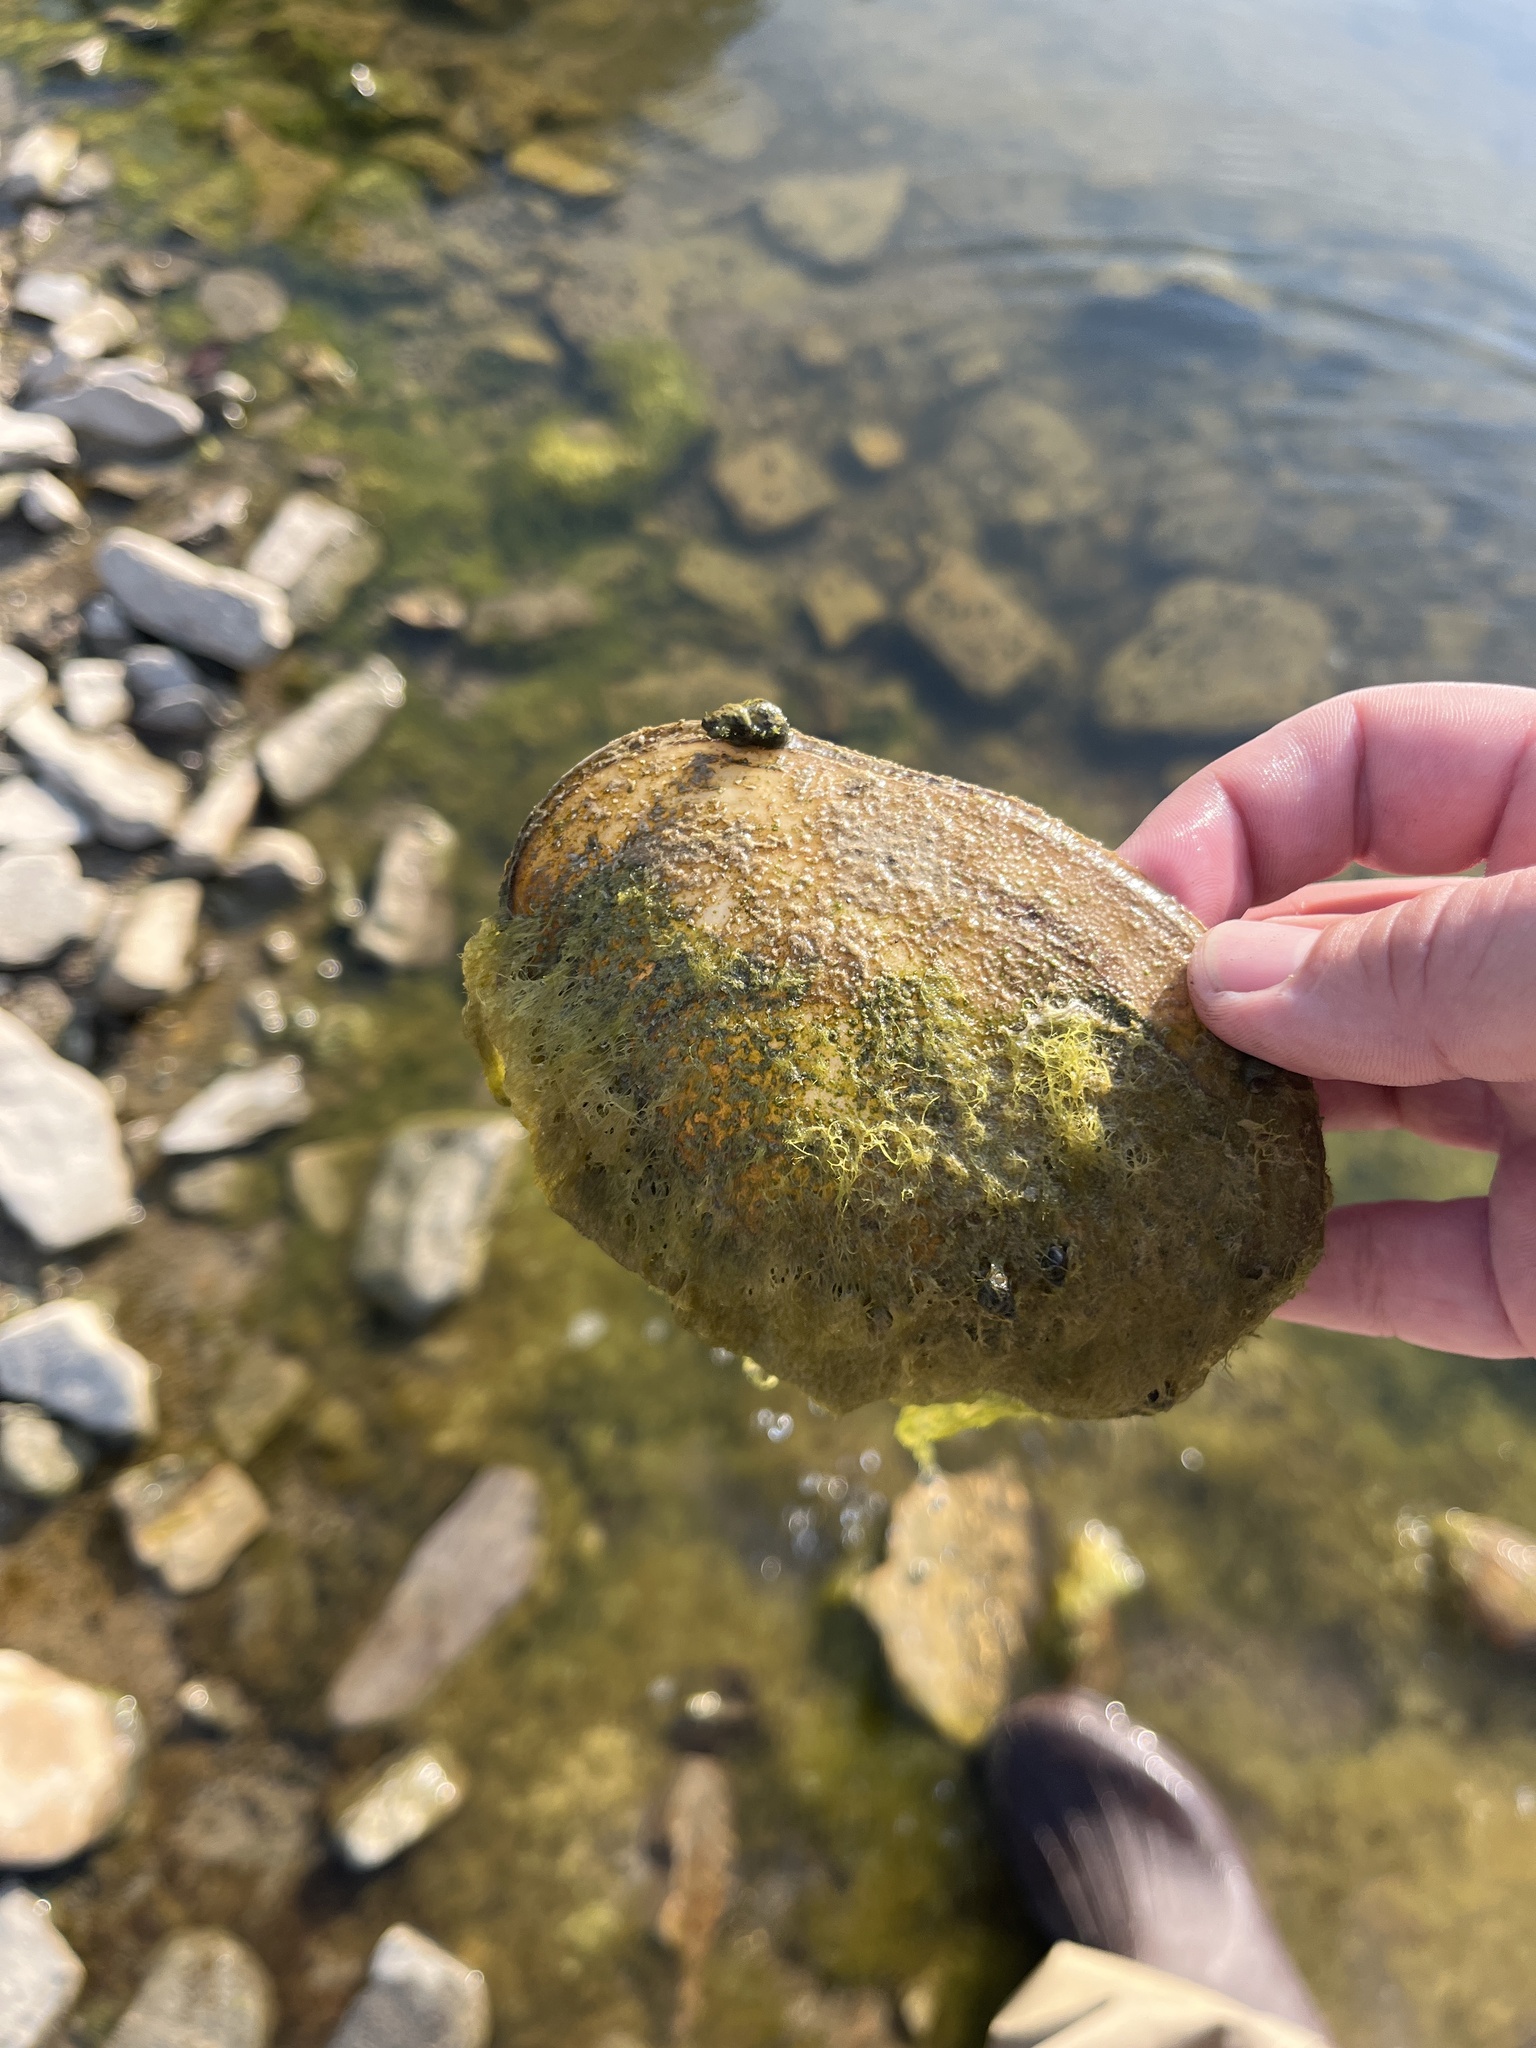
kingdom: Animalia
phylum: Mollusca
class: Bivalvia
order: Unionida
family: Unionidae
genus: Potamilus
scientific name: Potamilus fragilis
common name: Fragile papershell
